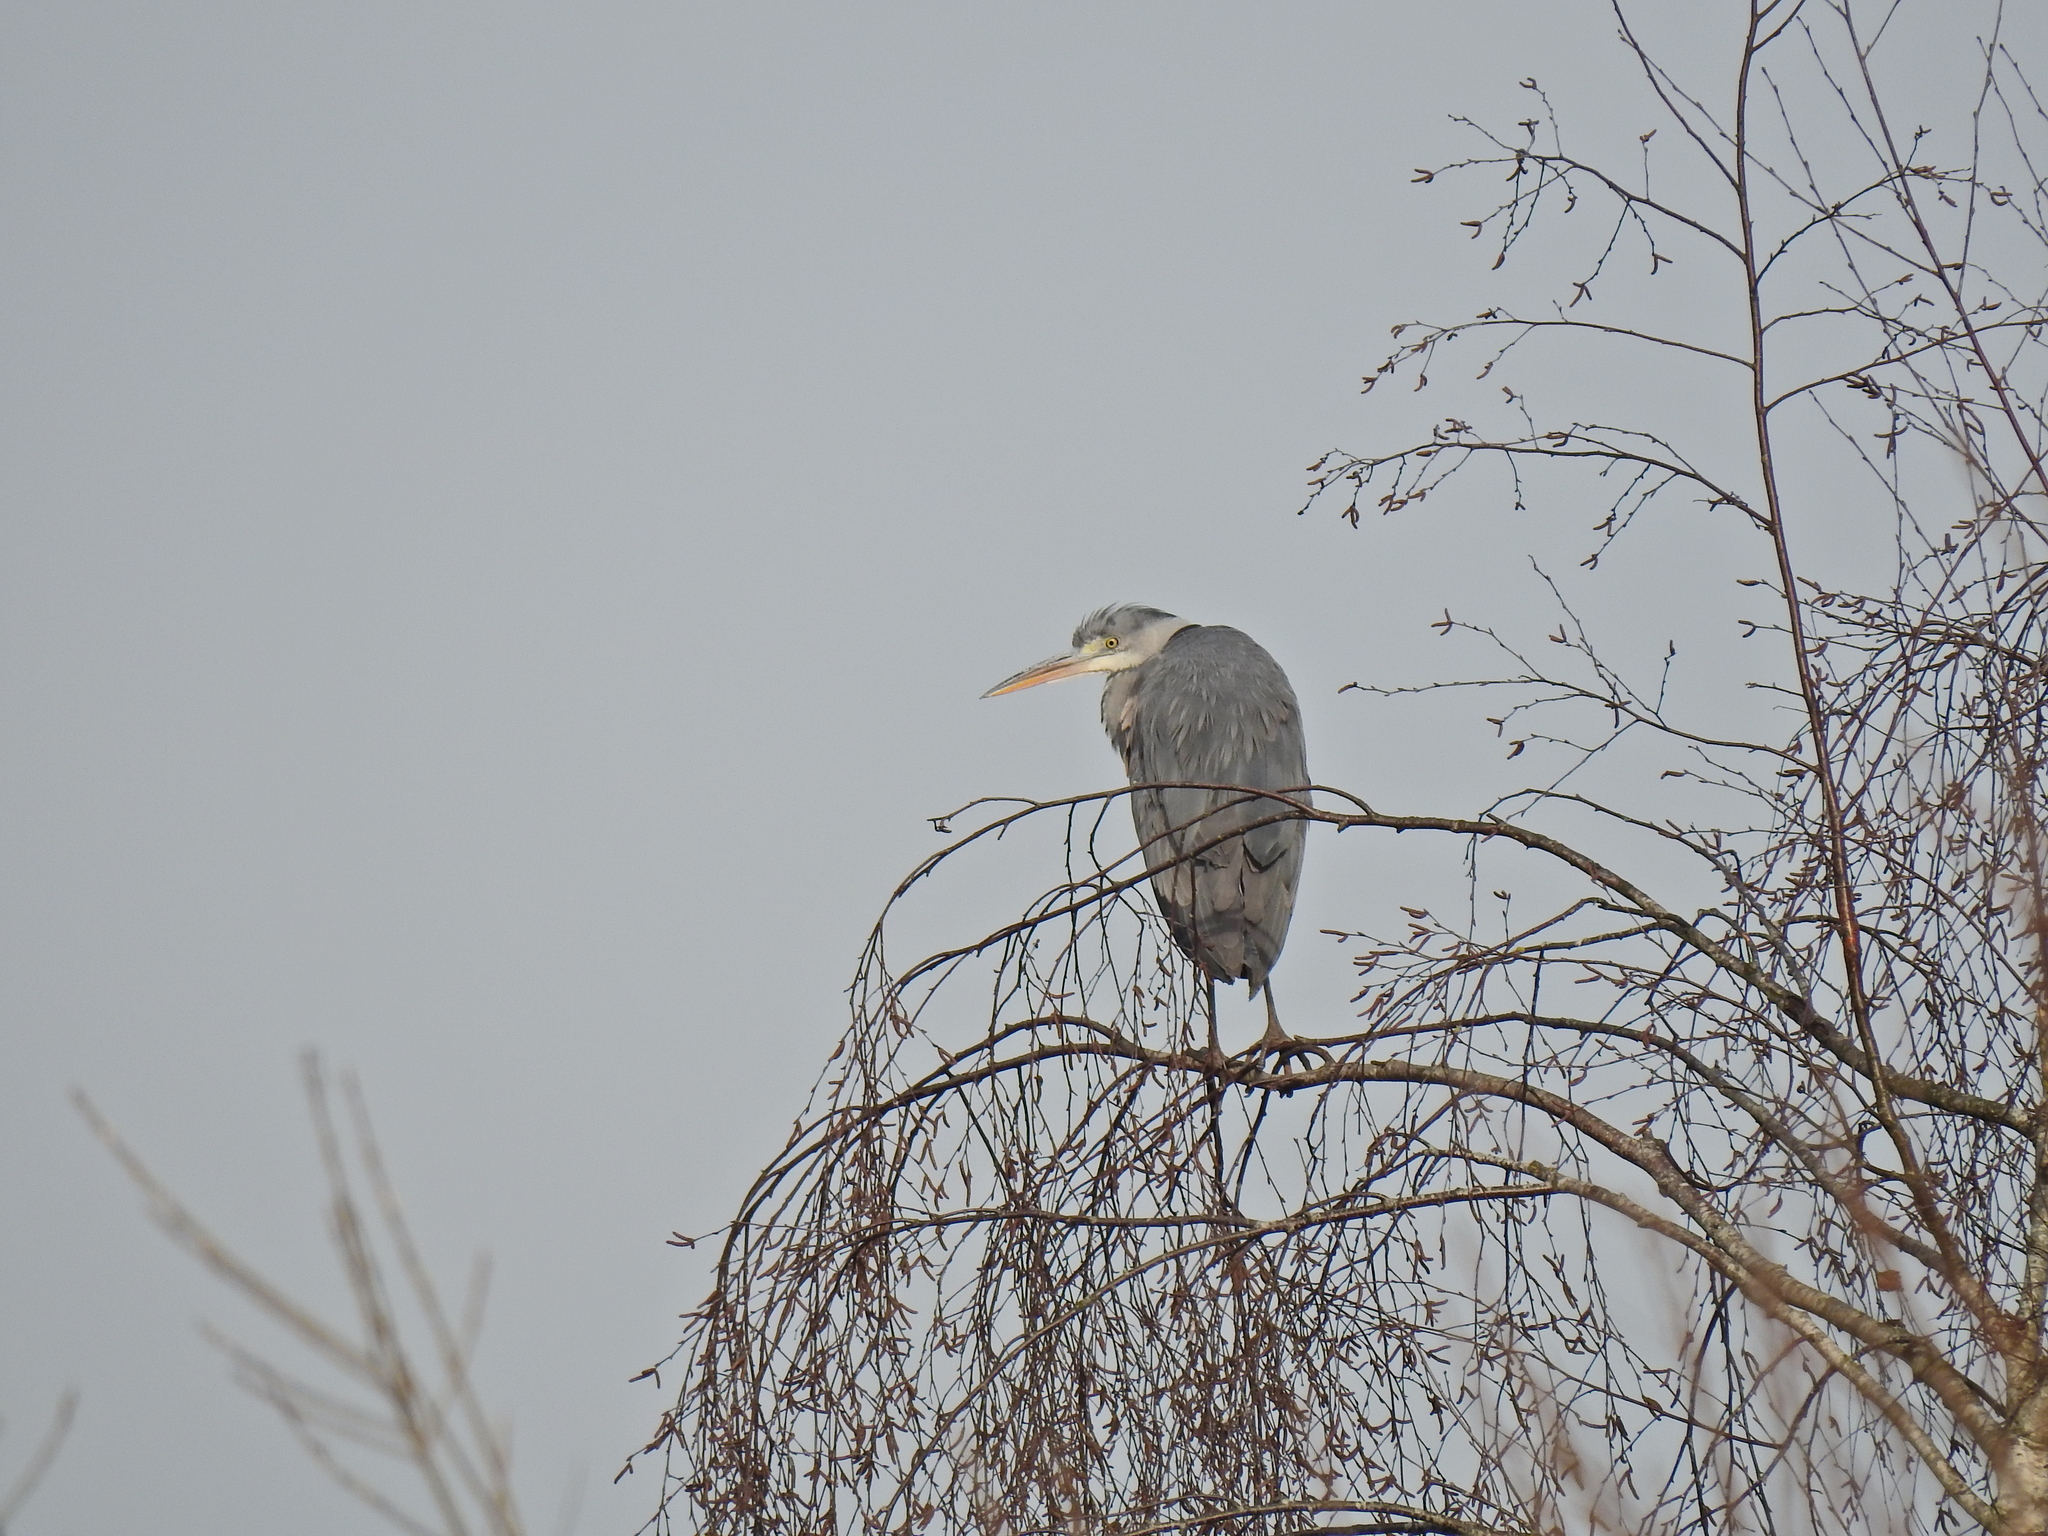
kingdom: Animalia
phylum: Chordata
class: Aves
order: Pelecaniformes
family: Ardeidae
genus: Ardea
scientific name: Ardea cinerea
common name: Grey heron
